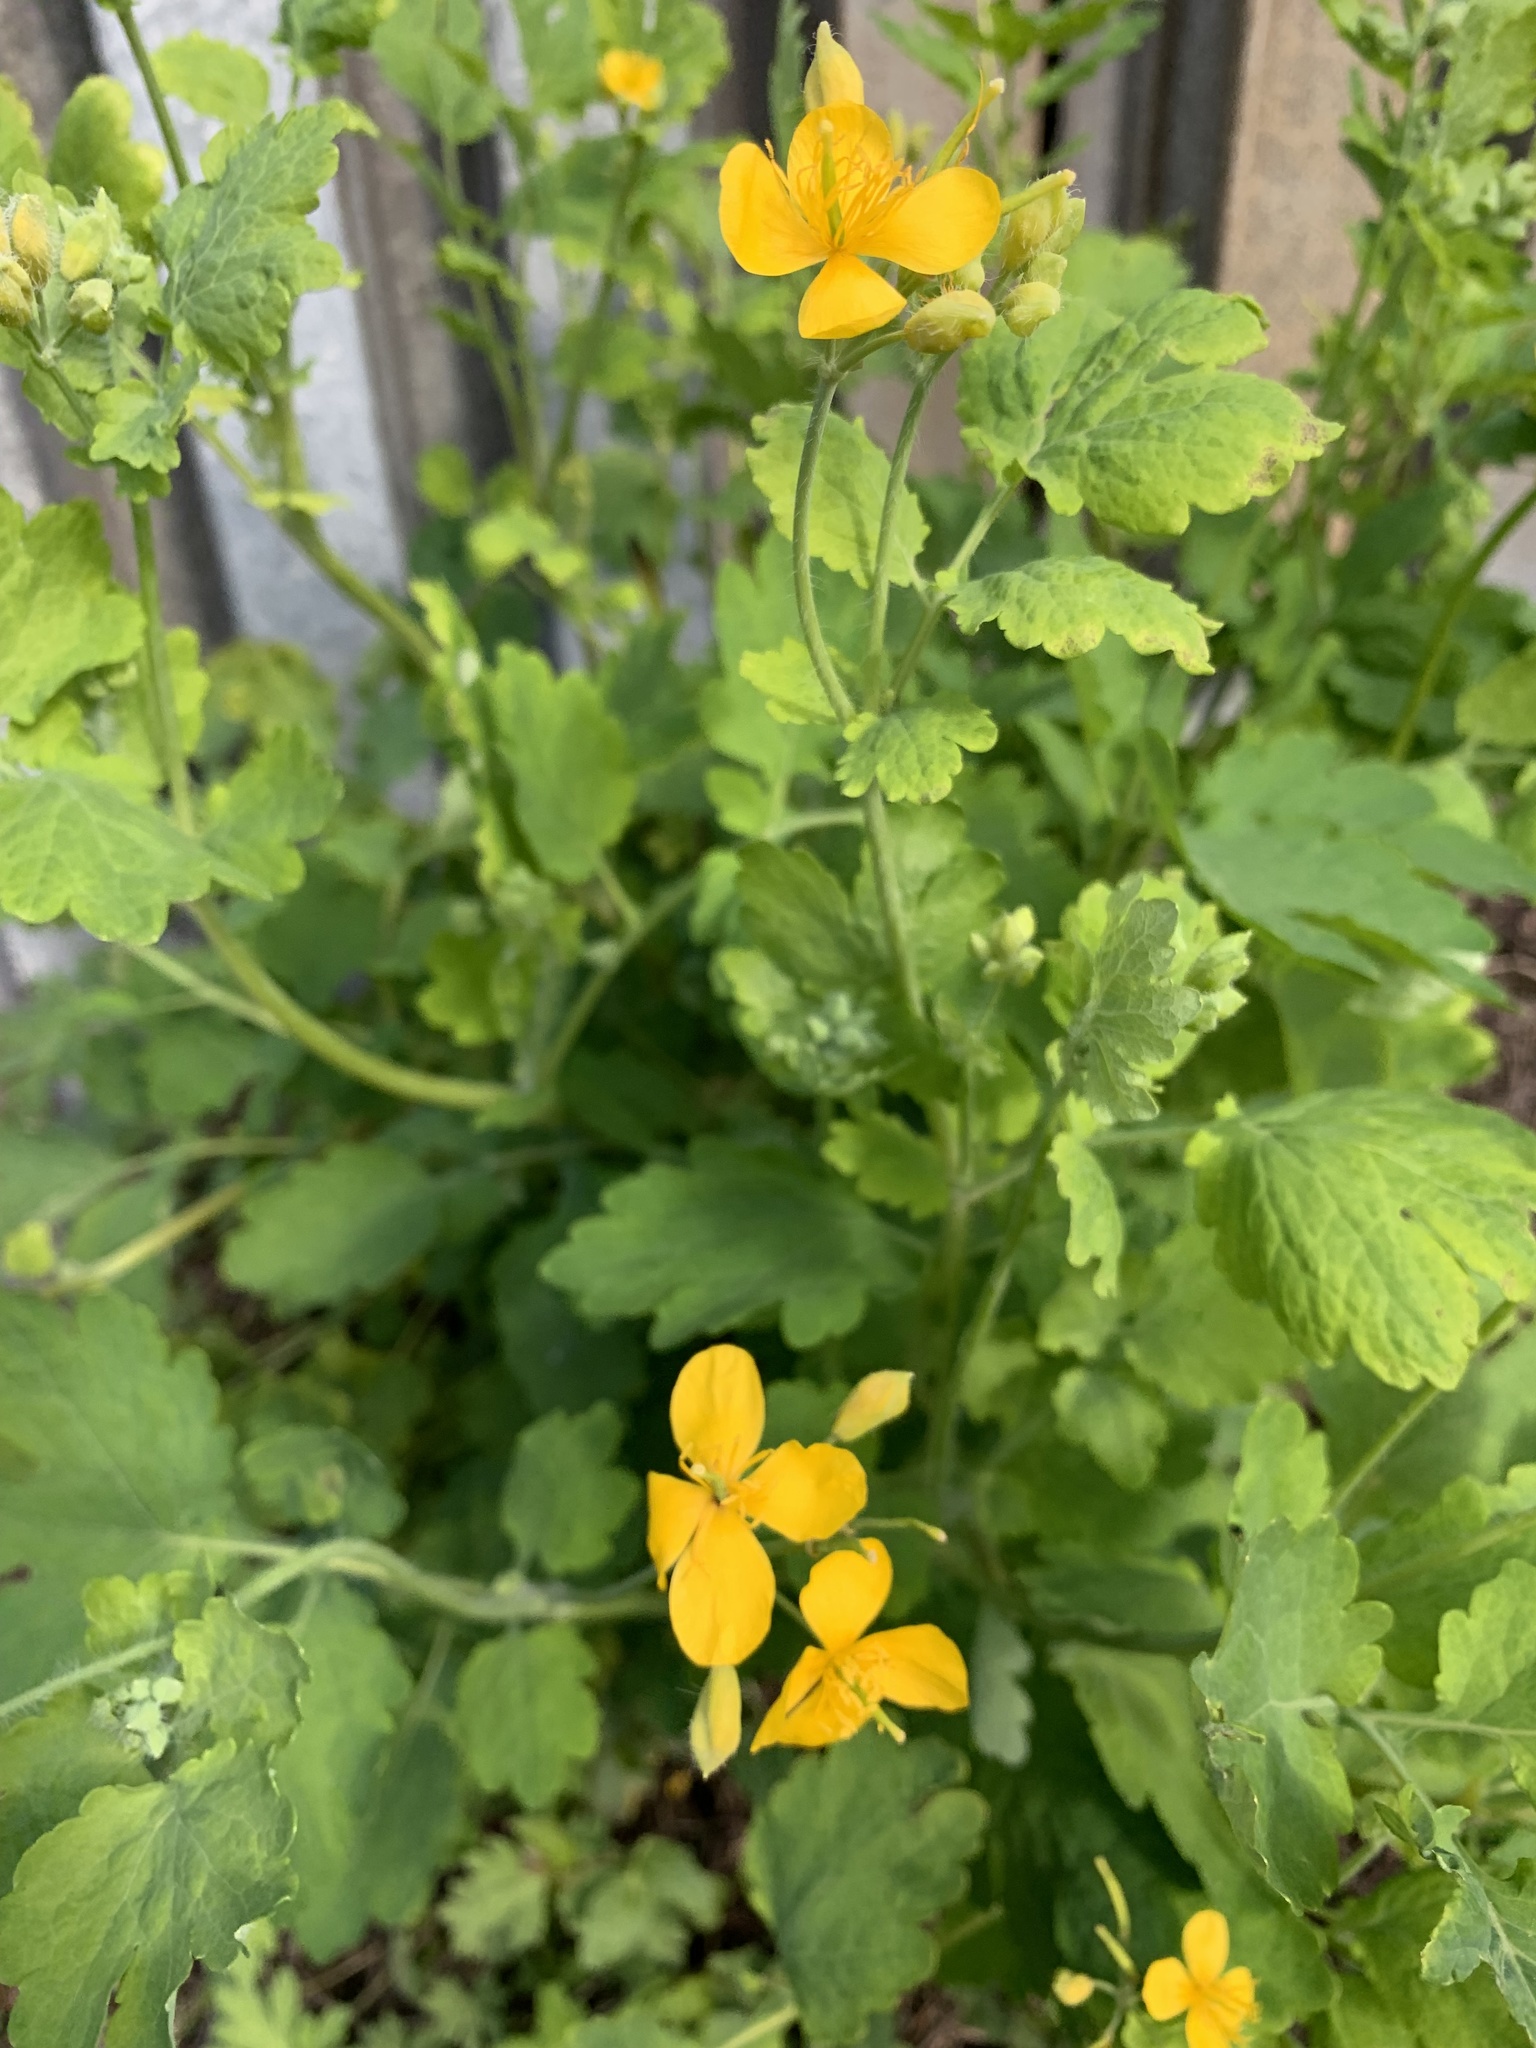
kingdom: Plantae
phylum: Tracheophyta
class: Magnoliopsida
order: Ranunculales
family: Papaveraceae
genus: Chelidonium
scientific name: Chelidonium majus
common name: Greater celandine
